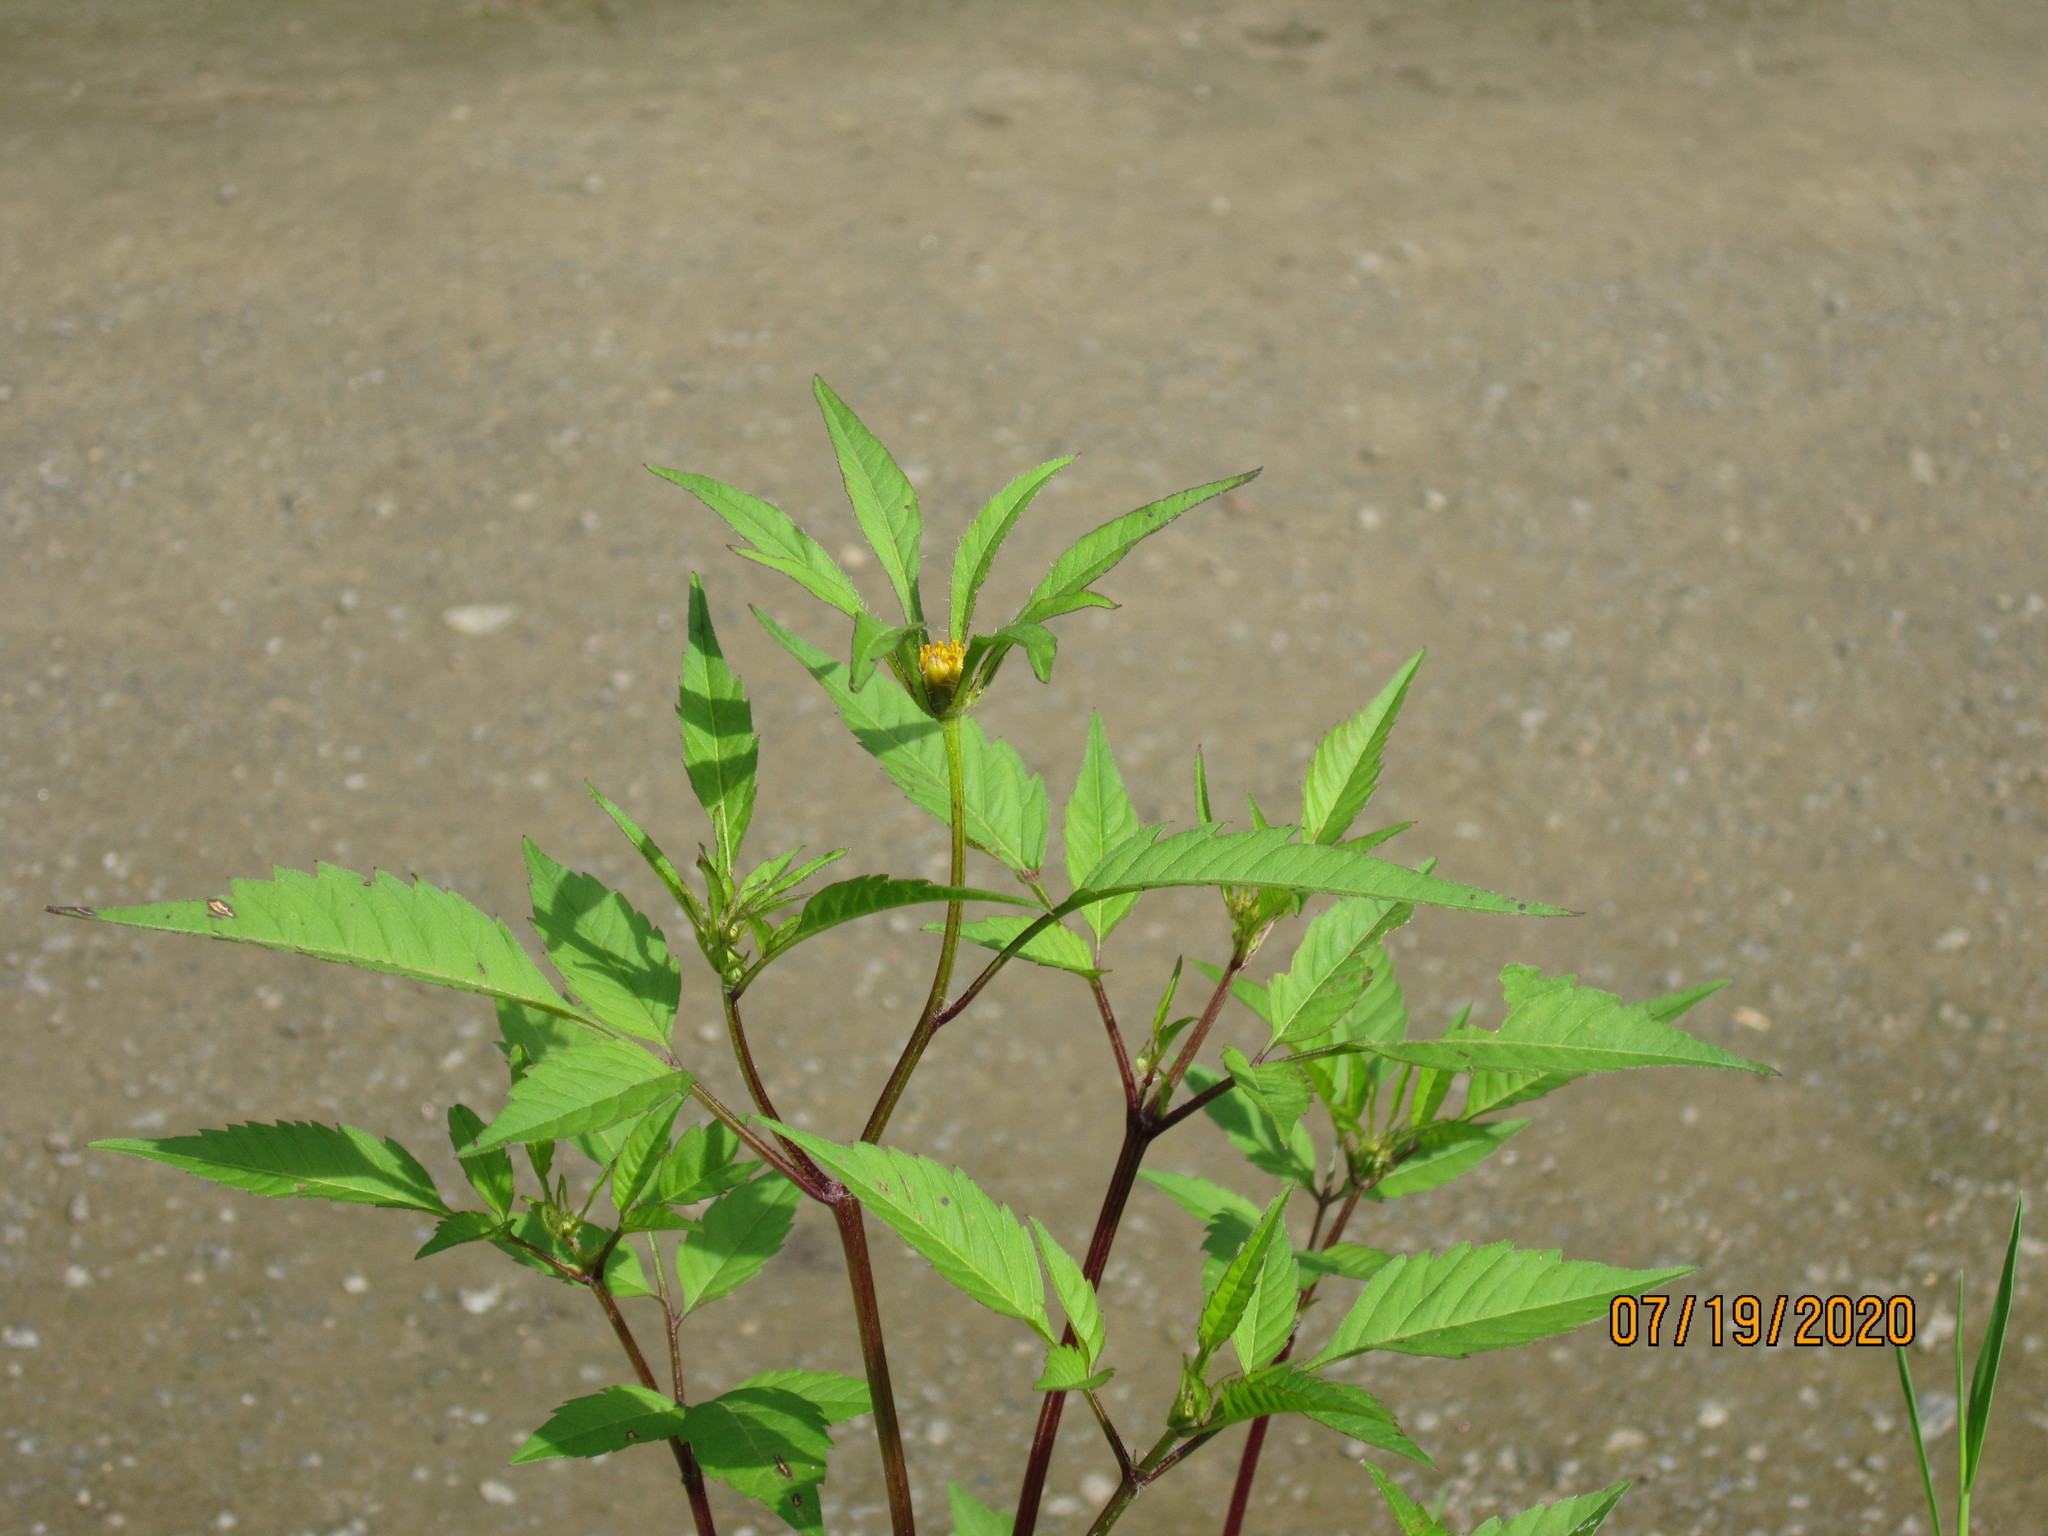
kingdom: Plantae
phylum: Tracheophyta
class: Magnoliopsida
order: Asterales
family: Asteraceae
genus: Bidens
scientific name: Bidens frondosa
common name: Beggarticks
